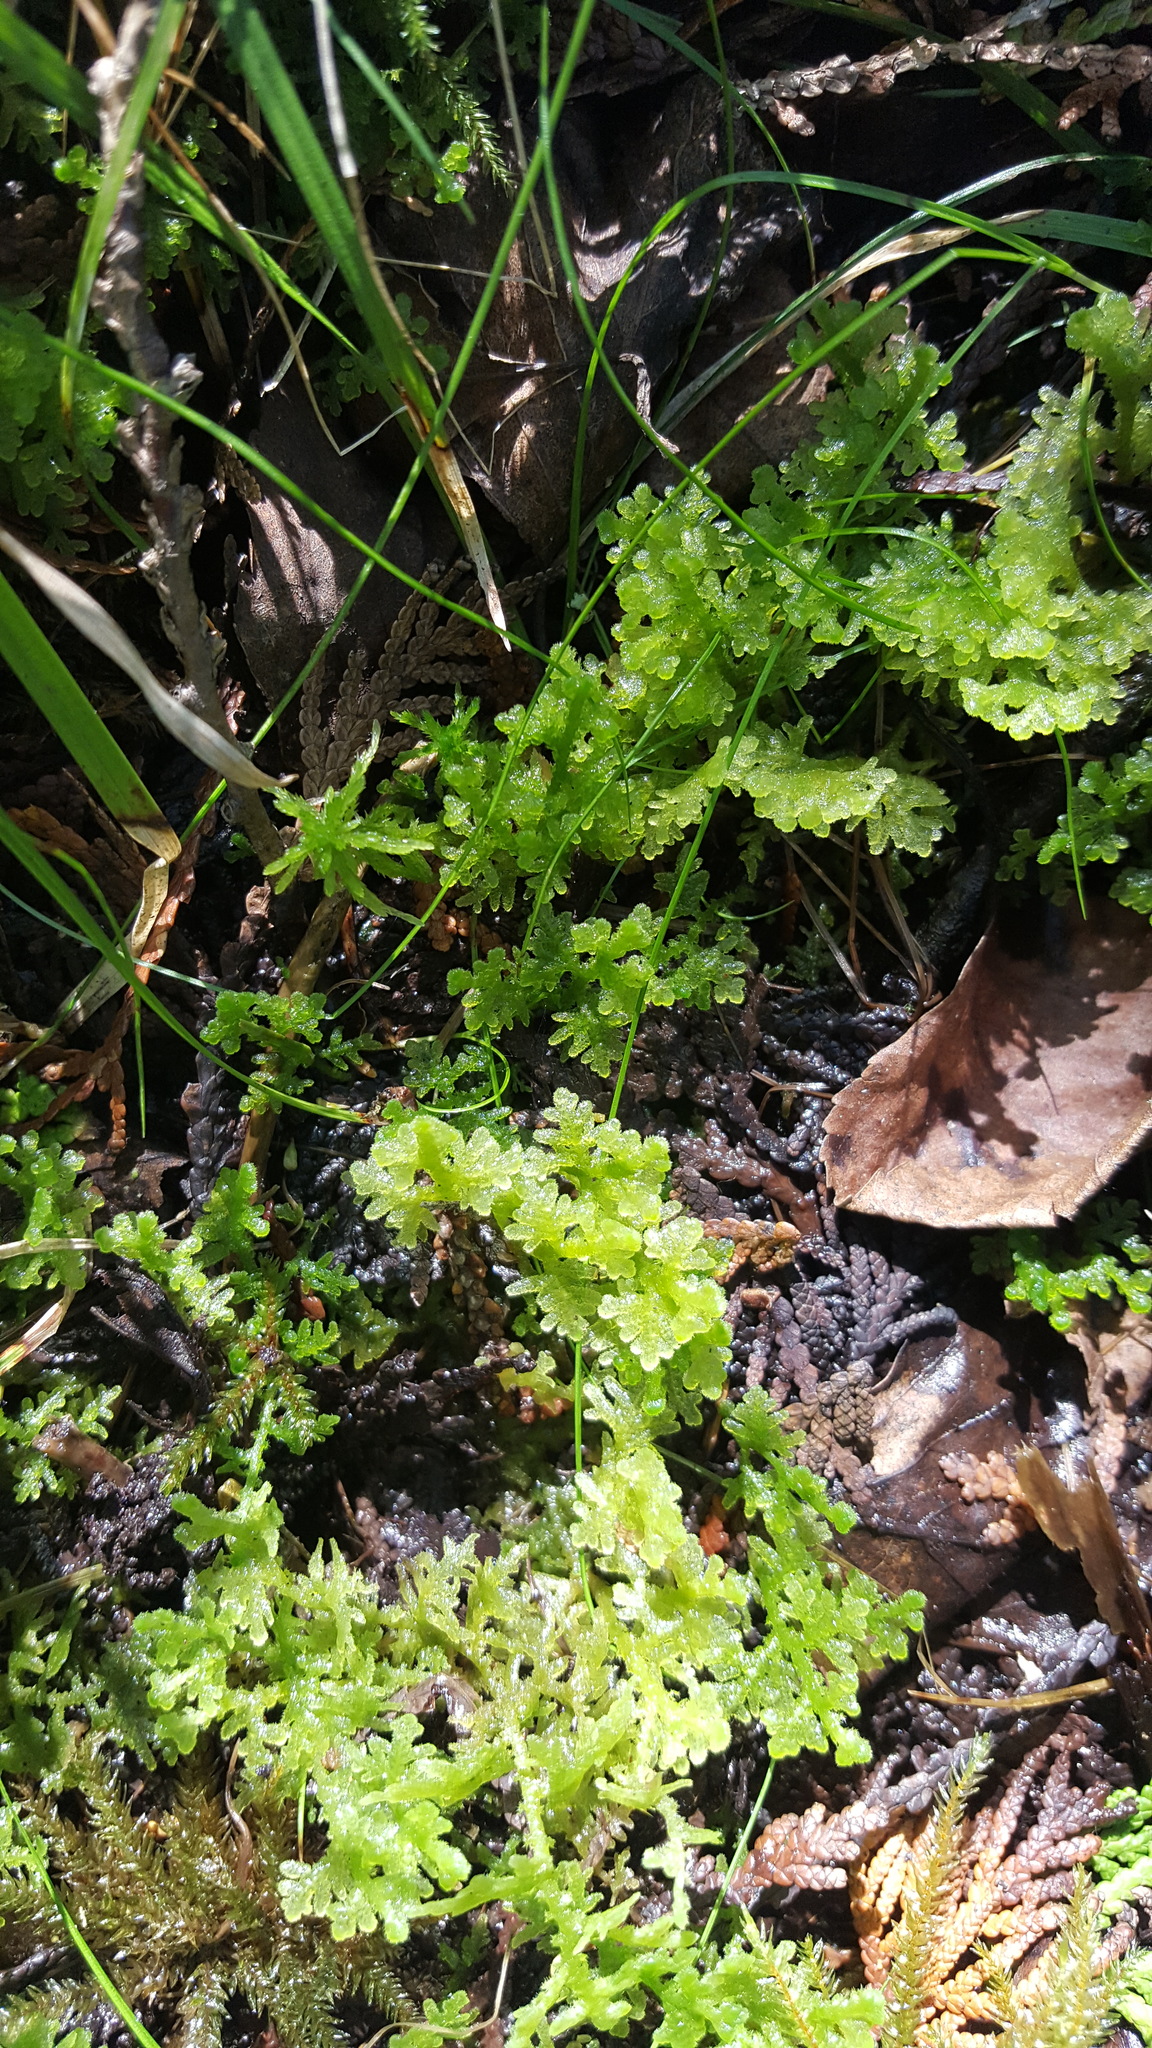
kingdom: Plantae
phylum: Marchantiophyta
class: Jungermanniopsida
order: Jungermanniales
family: Trichocoleaceae
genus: Trichocolea
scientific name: Trichocolea tomentella
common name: Woolly liverwort
